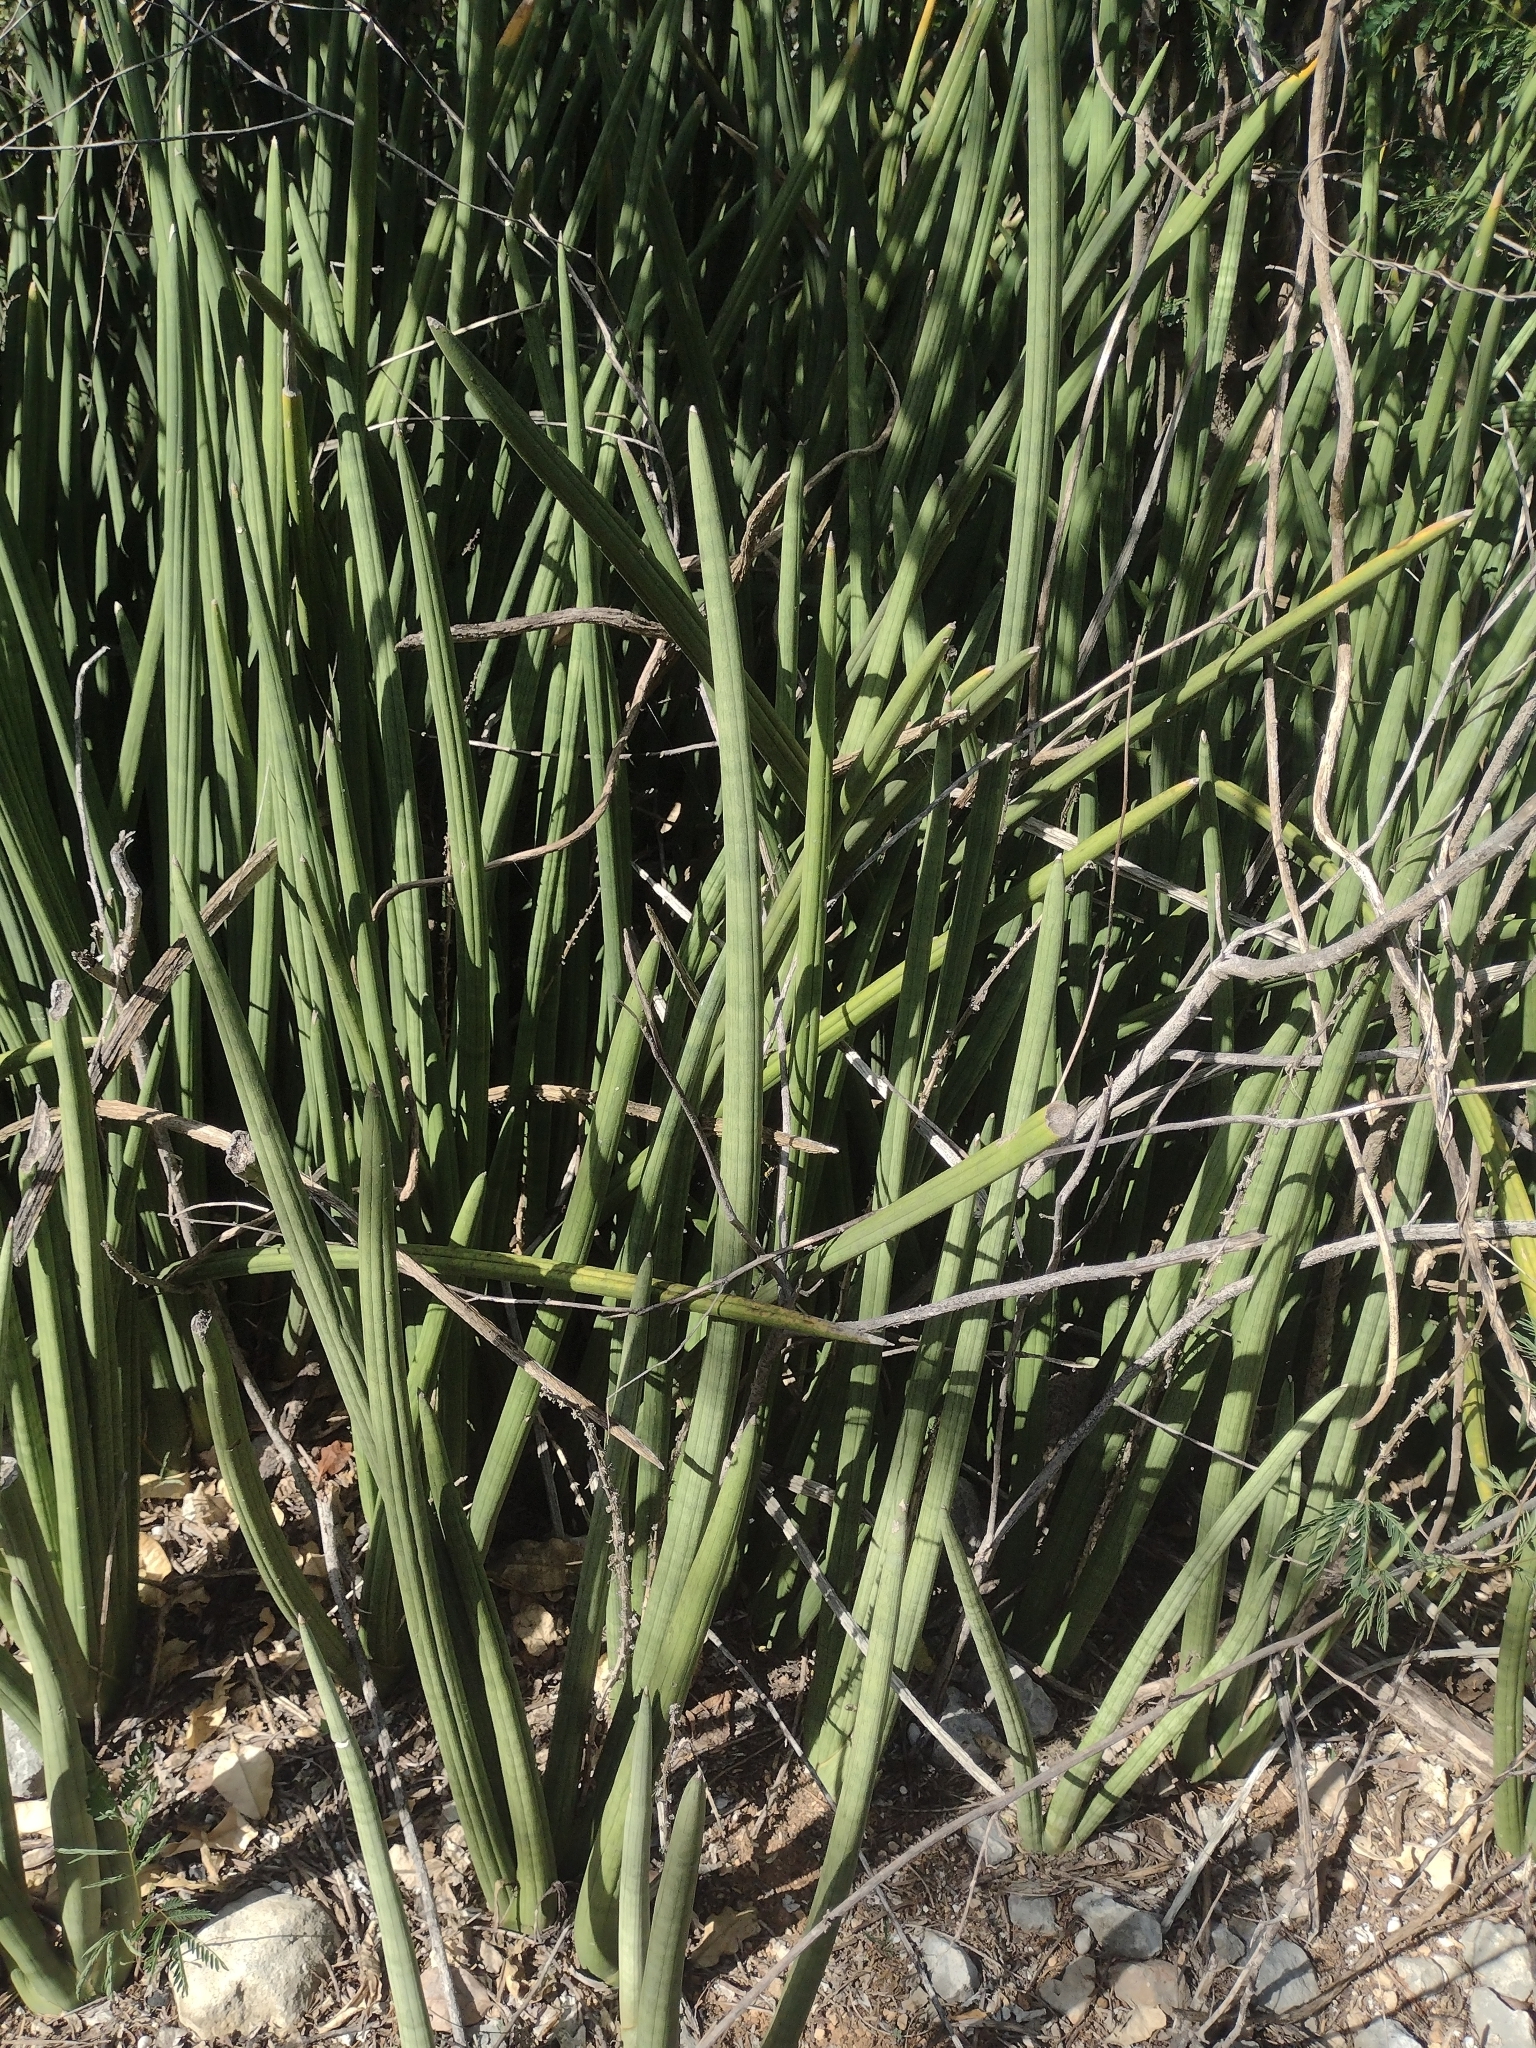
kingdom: Plantae
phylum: Tracheophyta
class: Liliopsida
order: Asparagales
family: Asparagaceae
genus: Dracaena
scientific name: Dracaena angolensis
